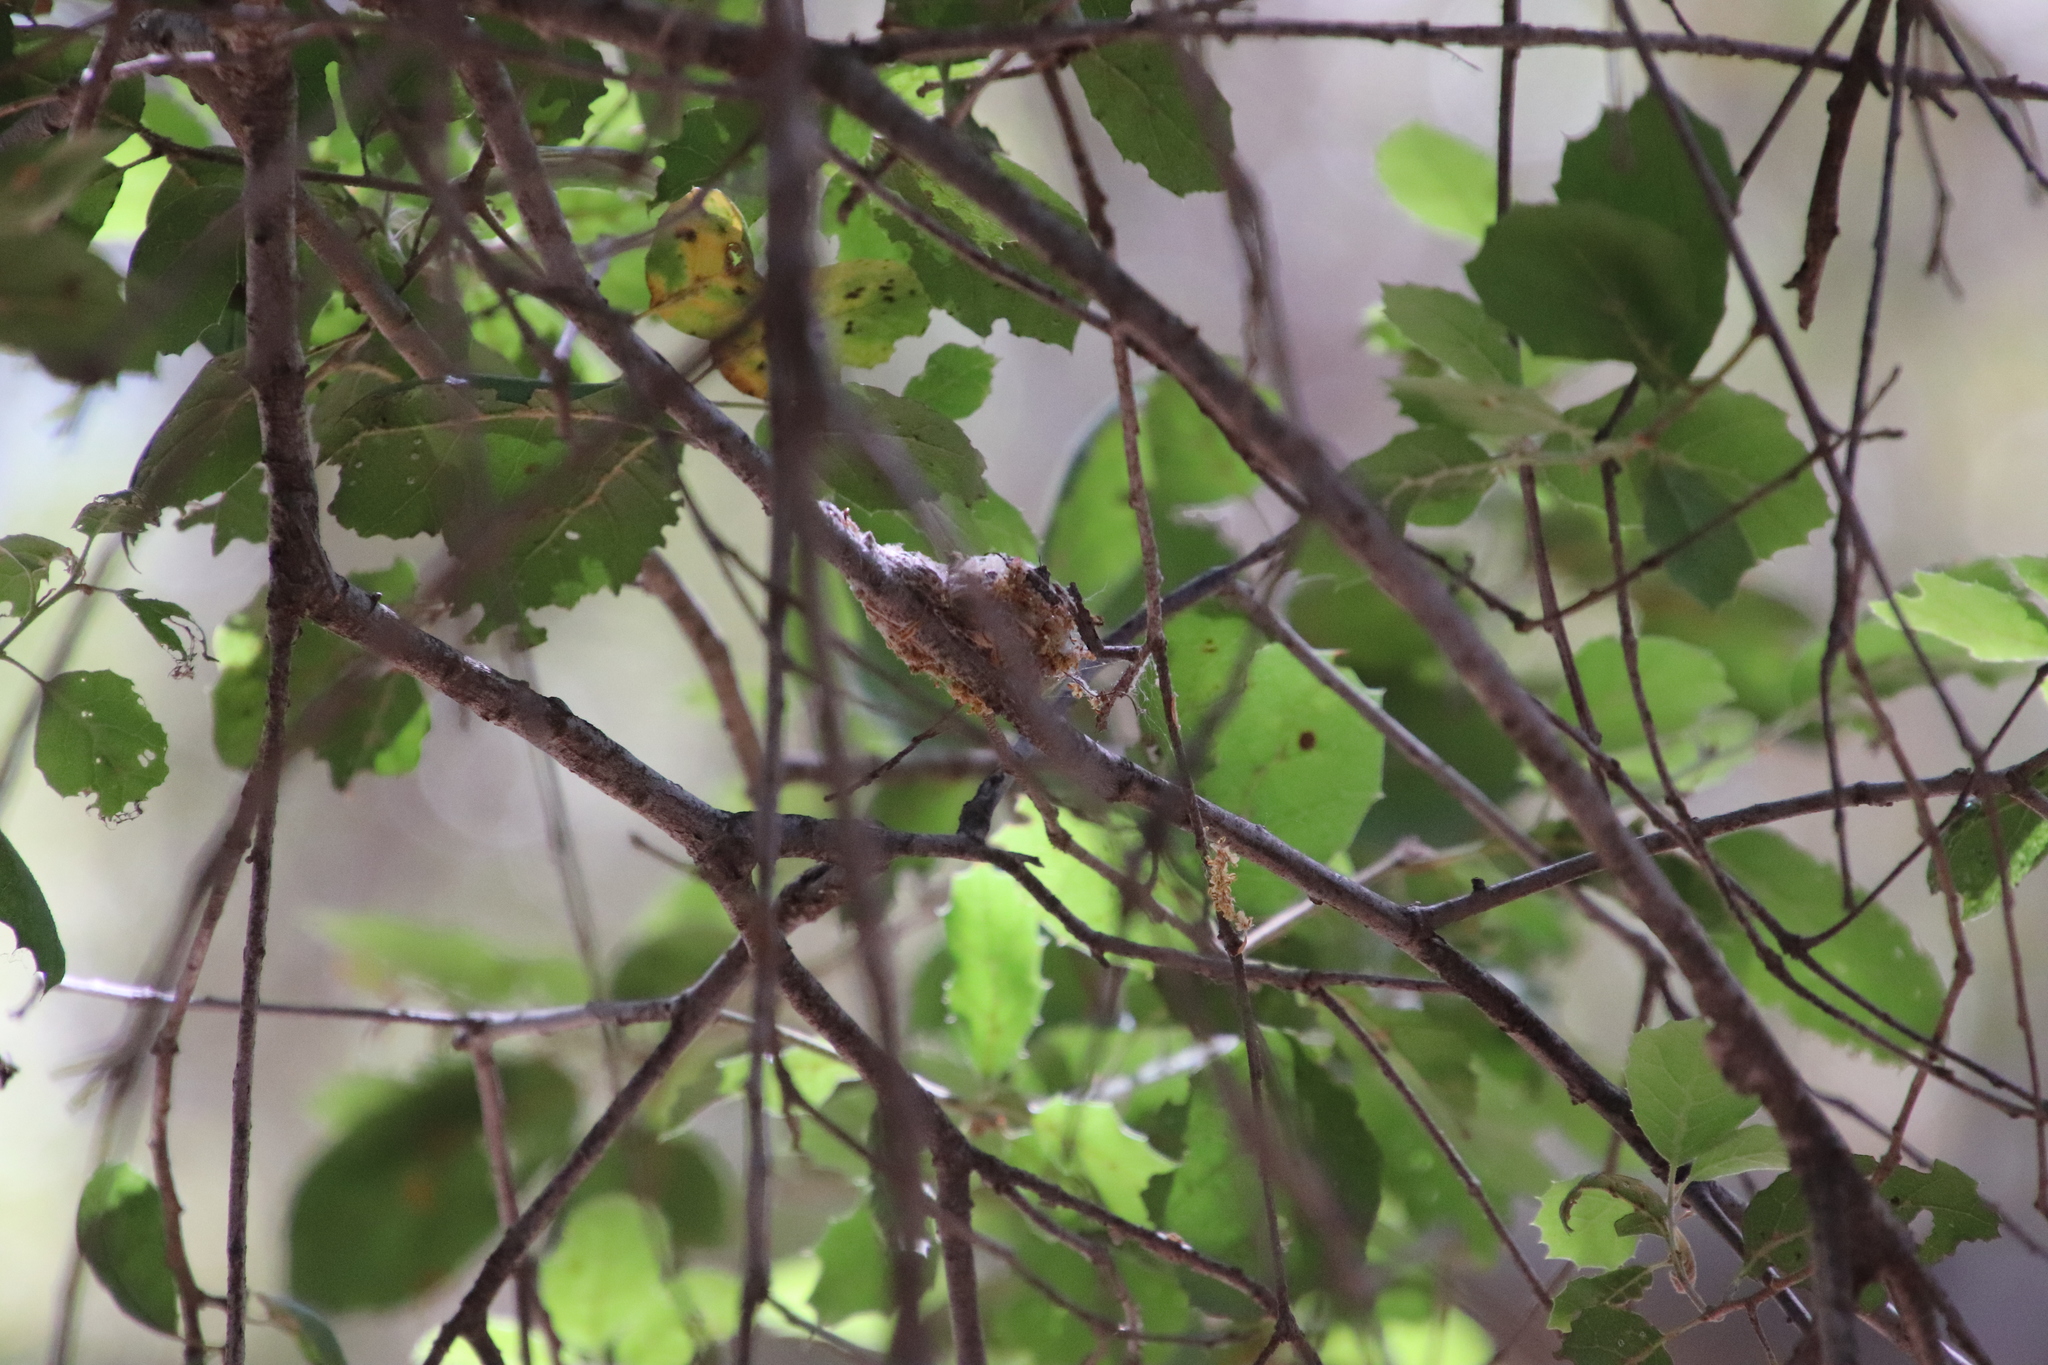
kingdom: Animalia
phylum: Chordata
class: Aves
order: Apodiformes
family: Trochilidae
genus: Calypte
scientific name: Calypte anna
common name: Anna's hummingbird
